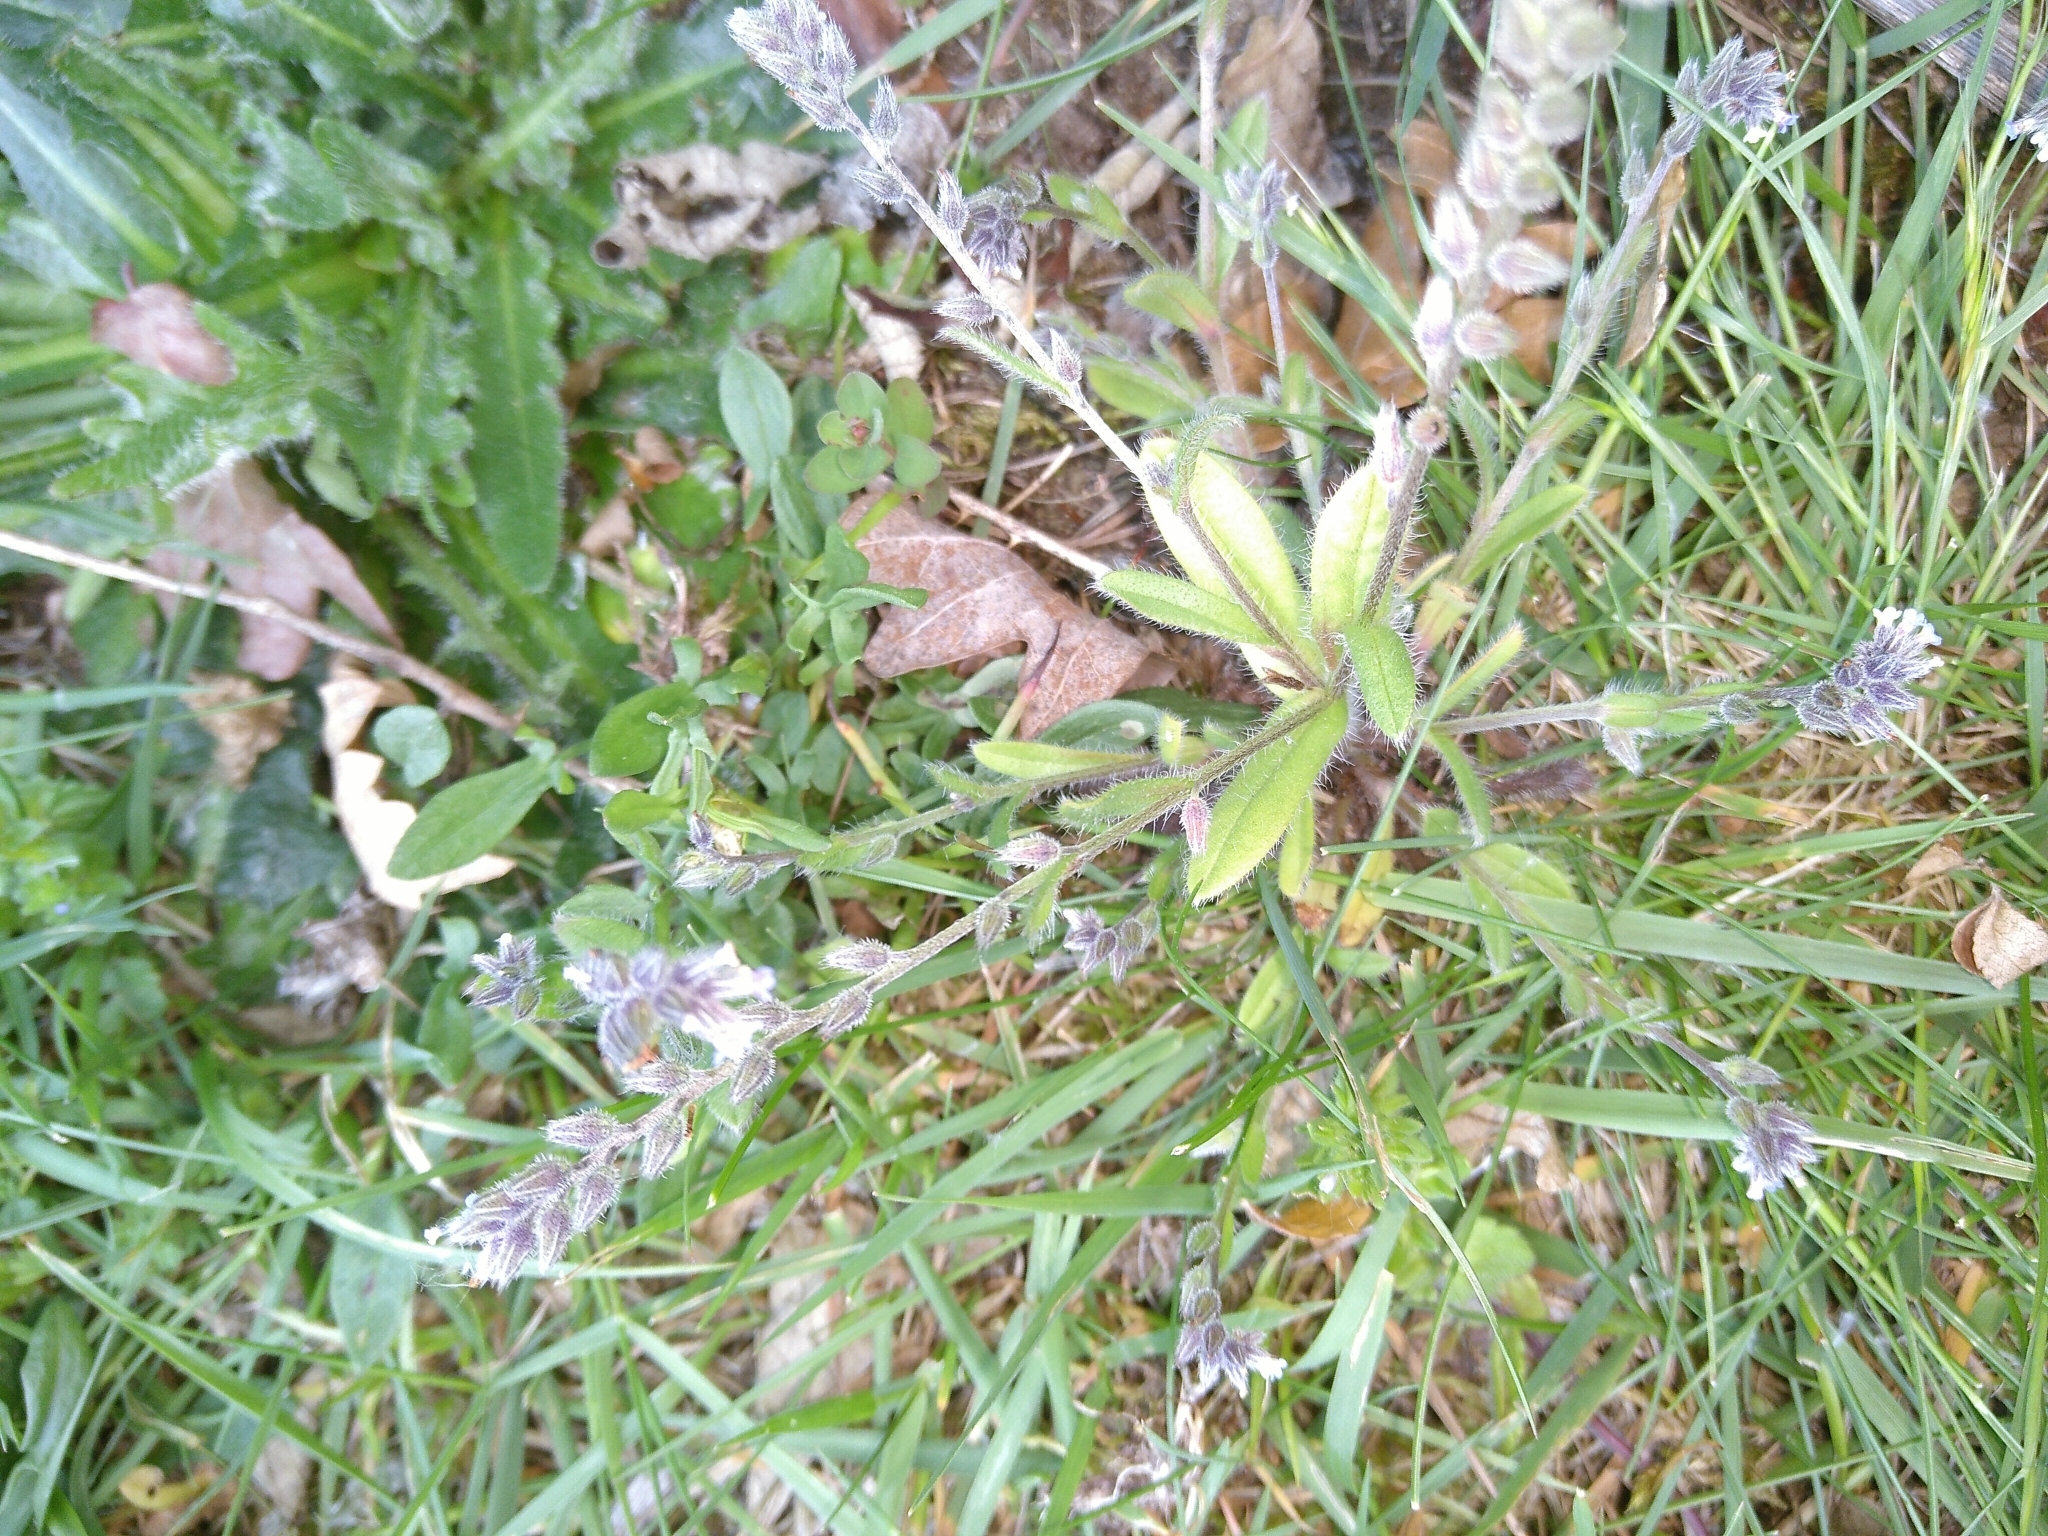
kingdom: Plantae
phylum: Tracheophyta
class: Magnoliopsida
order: Boraginales
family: Boraginaceae
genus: Myosotis
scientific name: Myosotis discolor
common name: Changing forget-me-not
